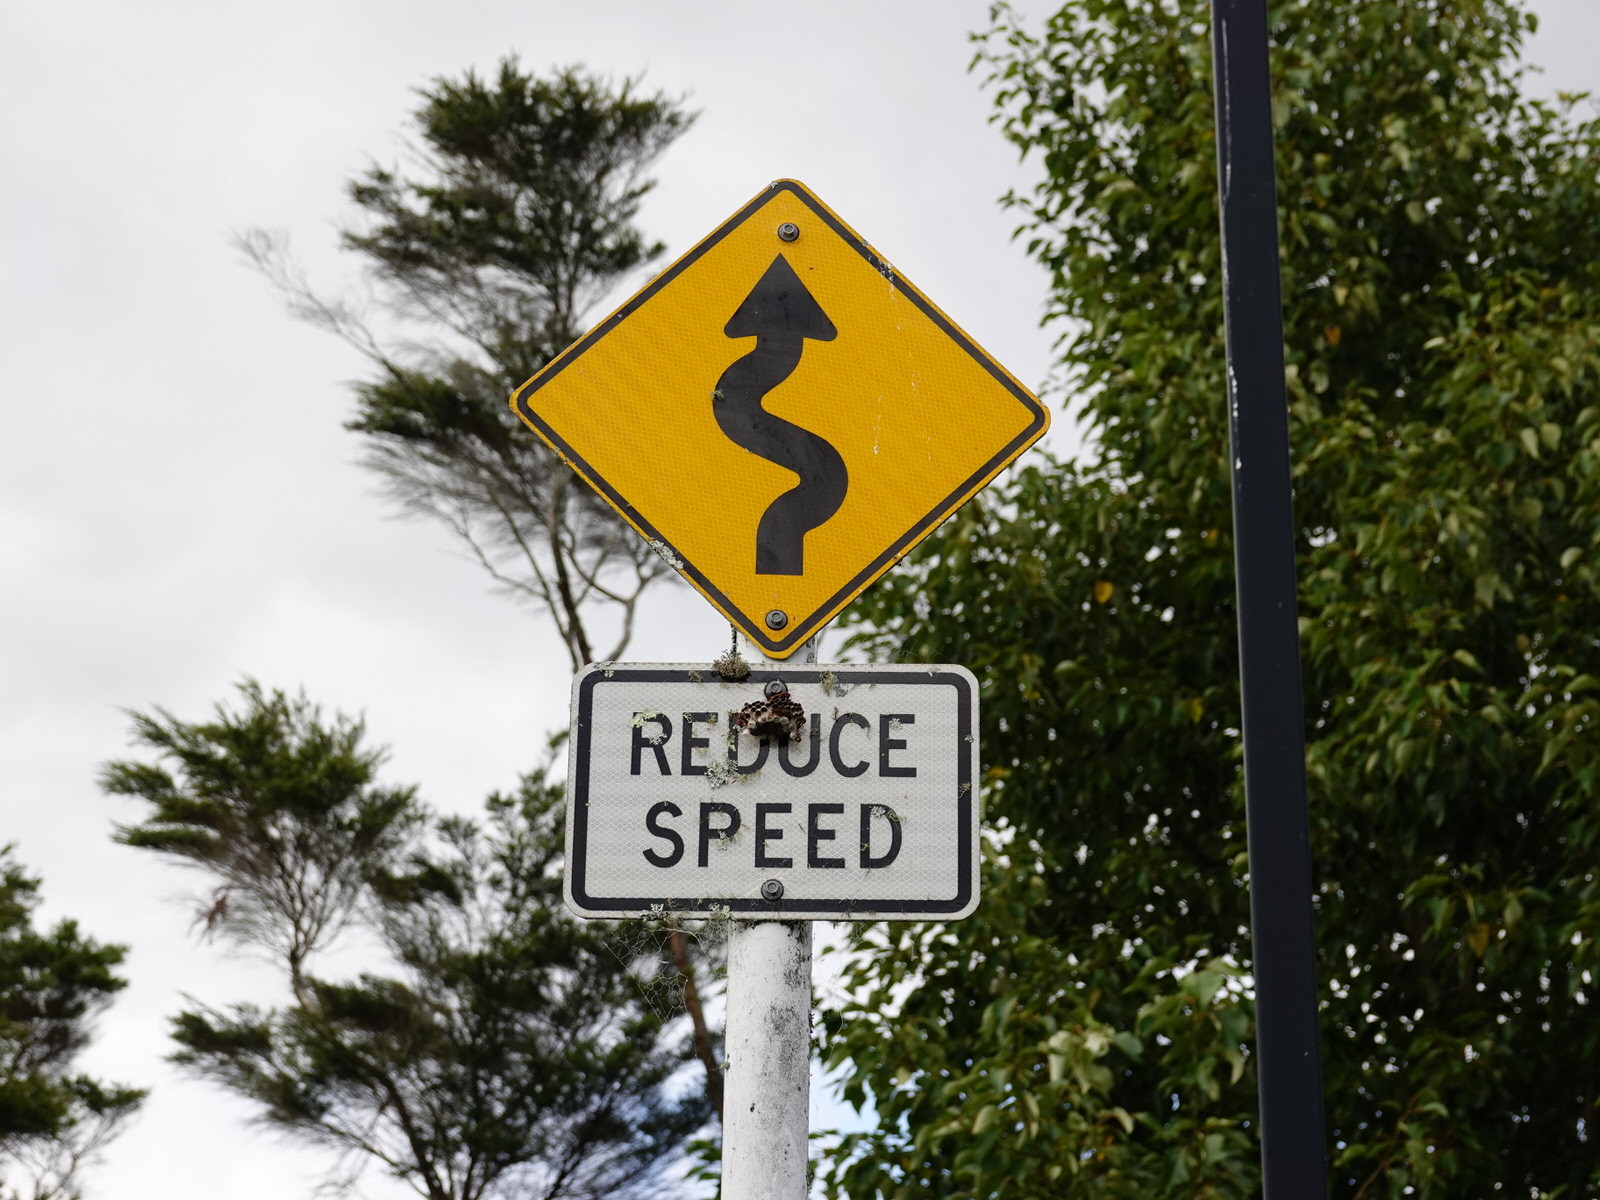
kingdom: Animalia
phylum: Arthropoda
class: Insecta
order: Hymenoptera
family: Eumenidae
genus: Polistes
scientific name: Polistes humilis
